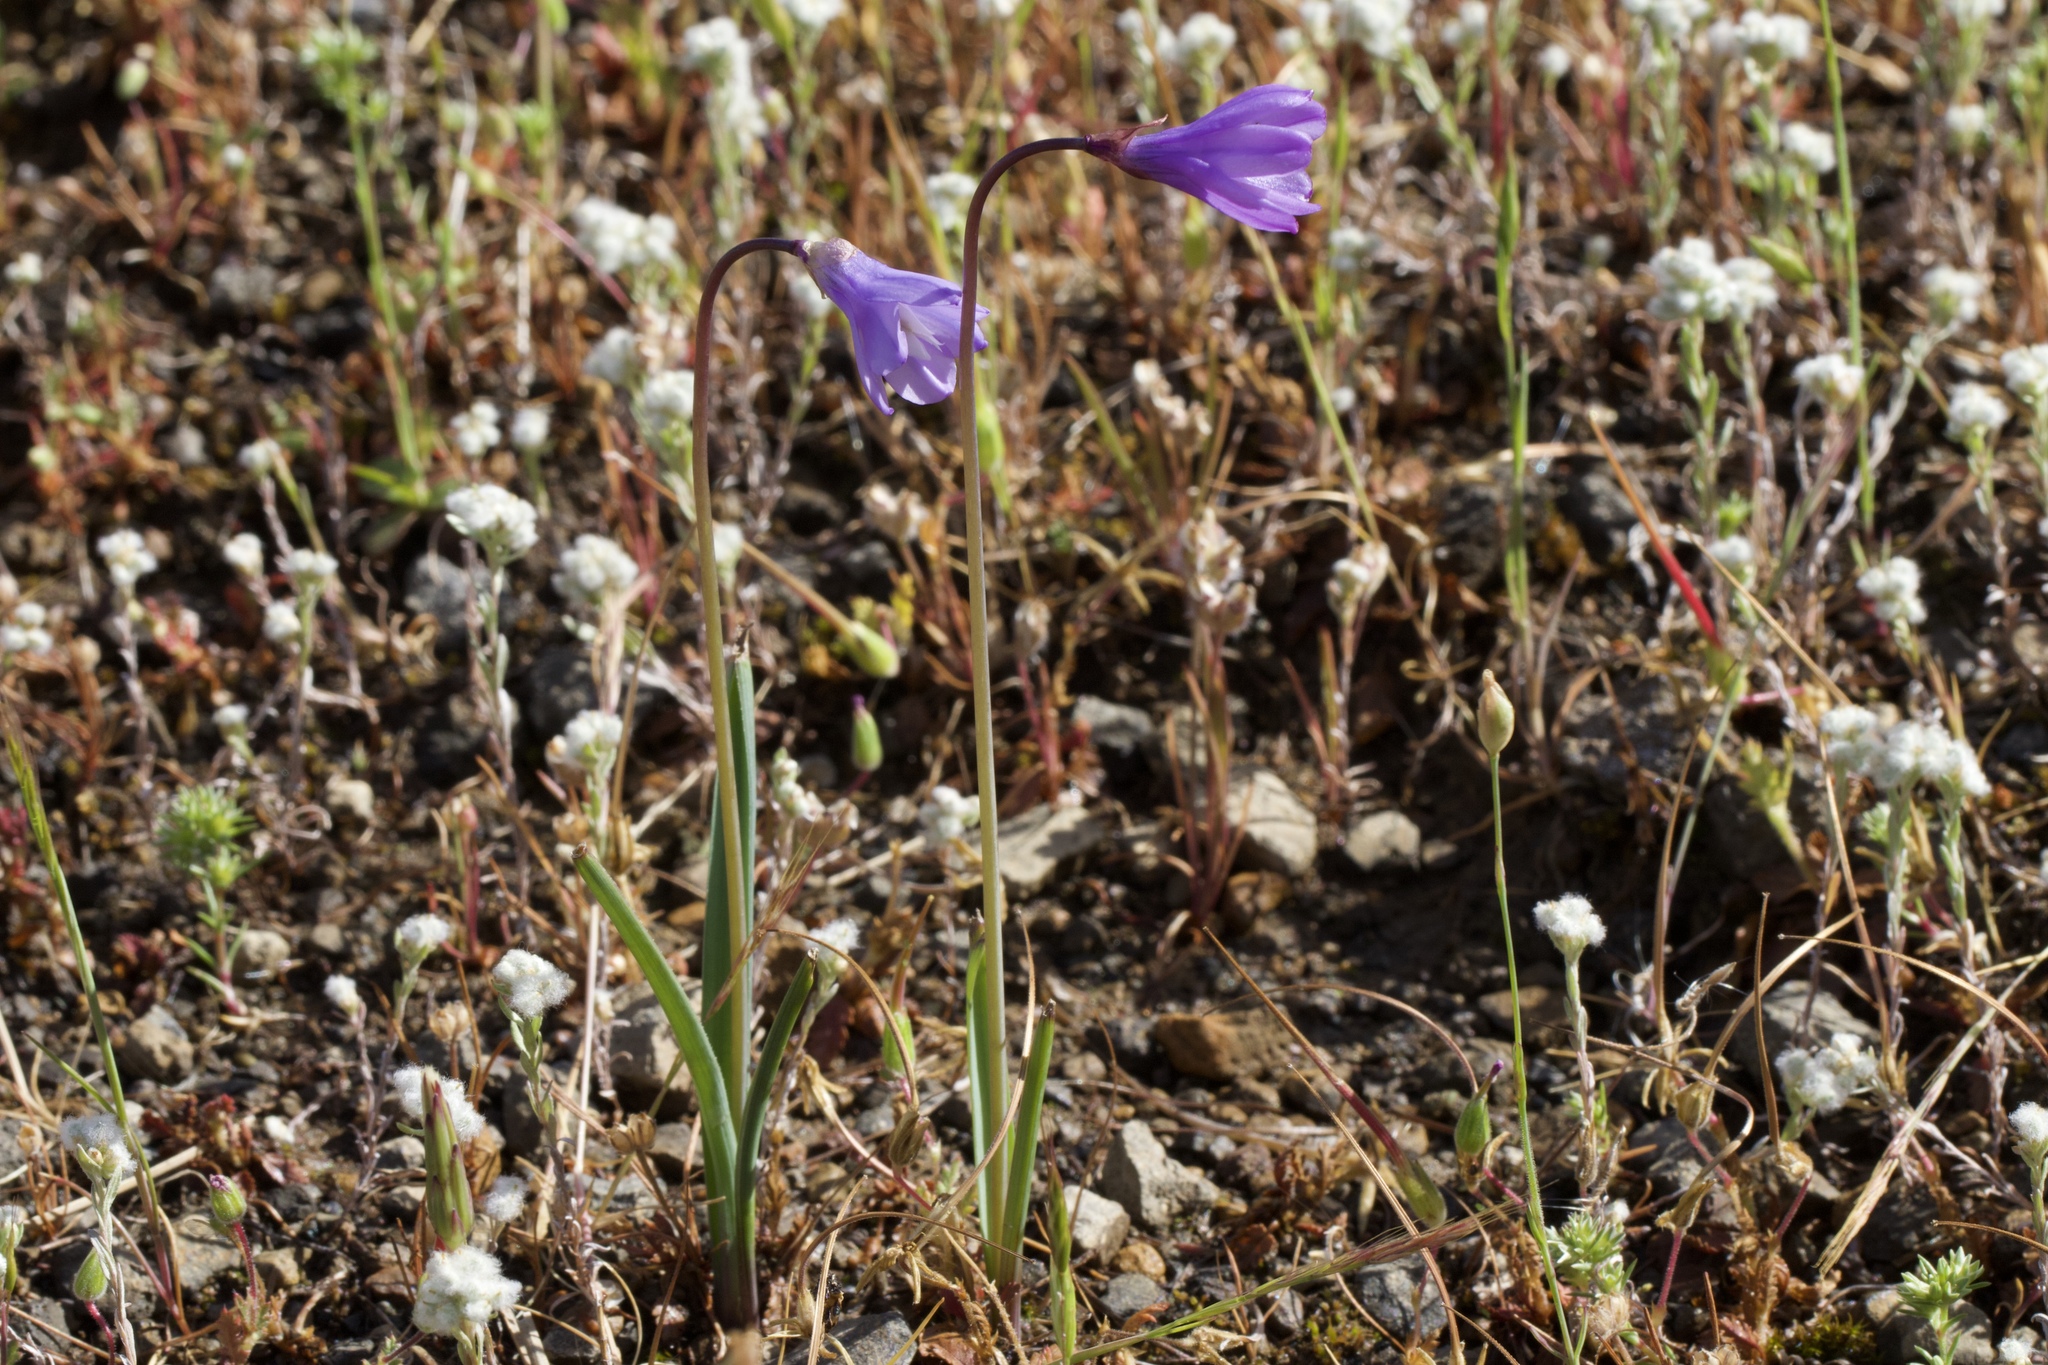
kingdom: Plantae
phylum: Tracheophyta
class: Liliopsida
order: Asparagales
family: Asparagaceae
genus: Dipterostemon
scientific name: Dipterostemon capitatus
